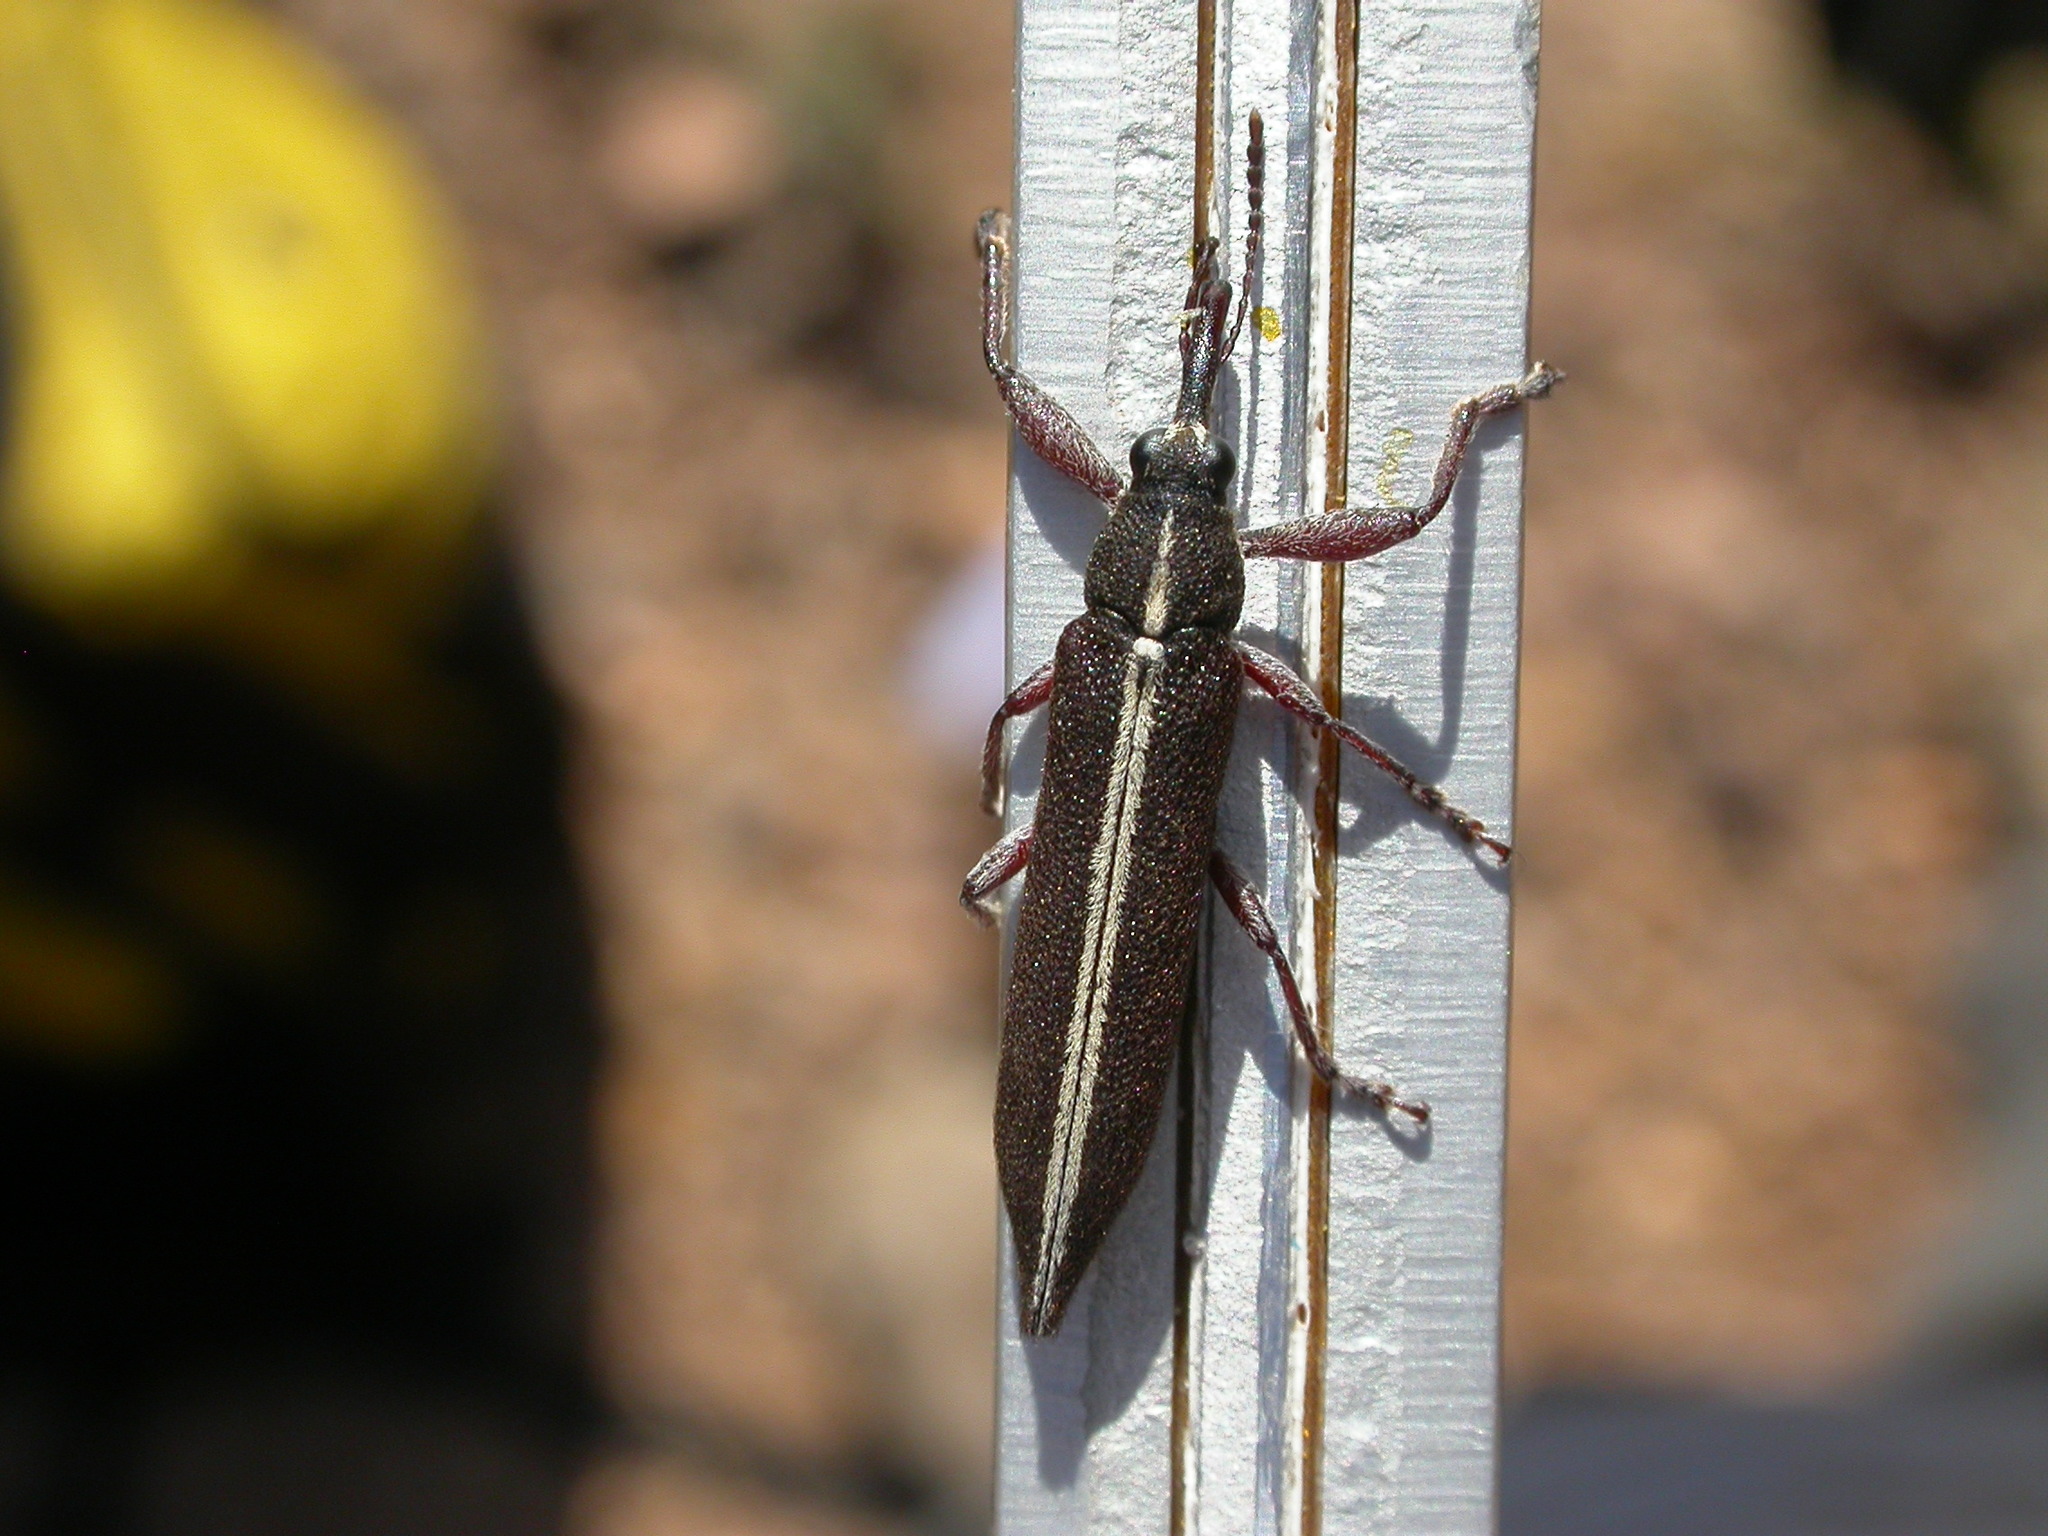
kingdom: Animalia
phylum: Arthropoda
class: Insecta
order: Coleoptera
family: Belidae
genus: Rhinotia
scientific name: Rhinotia suturalis
